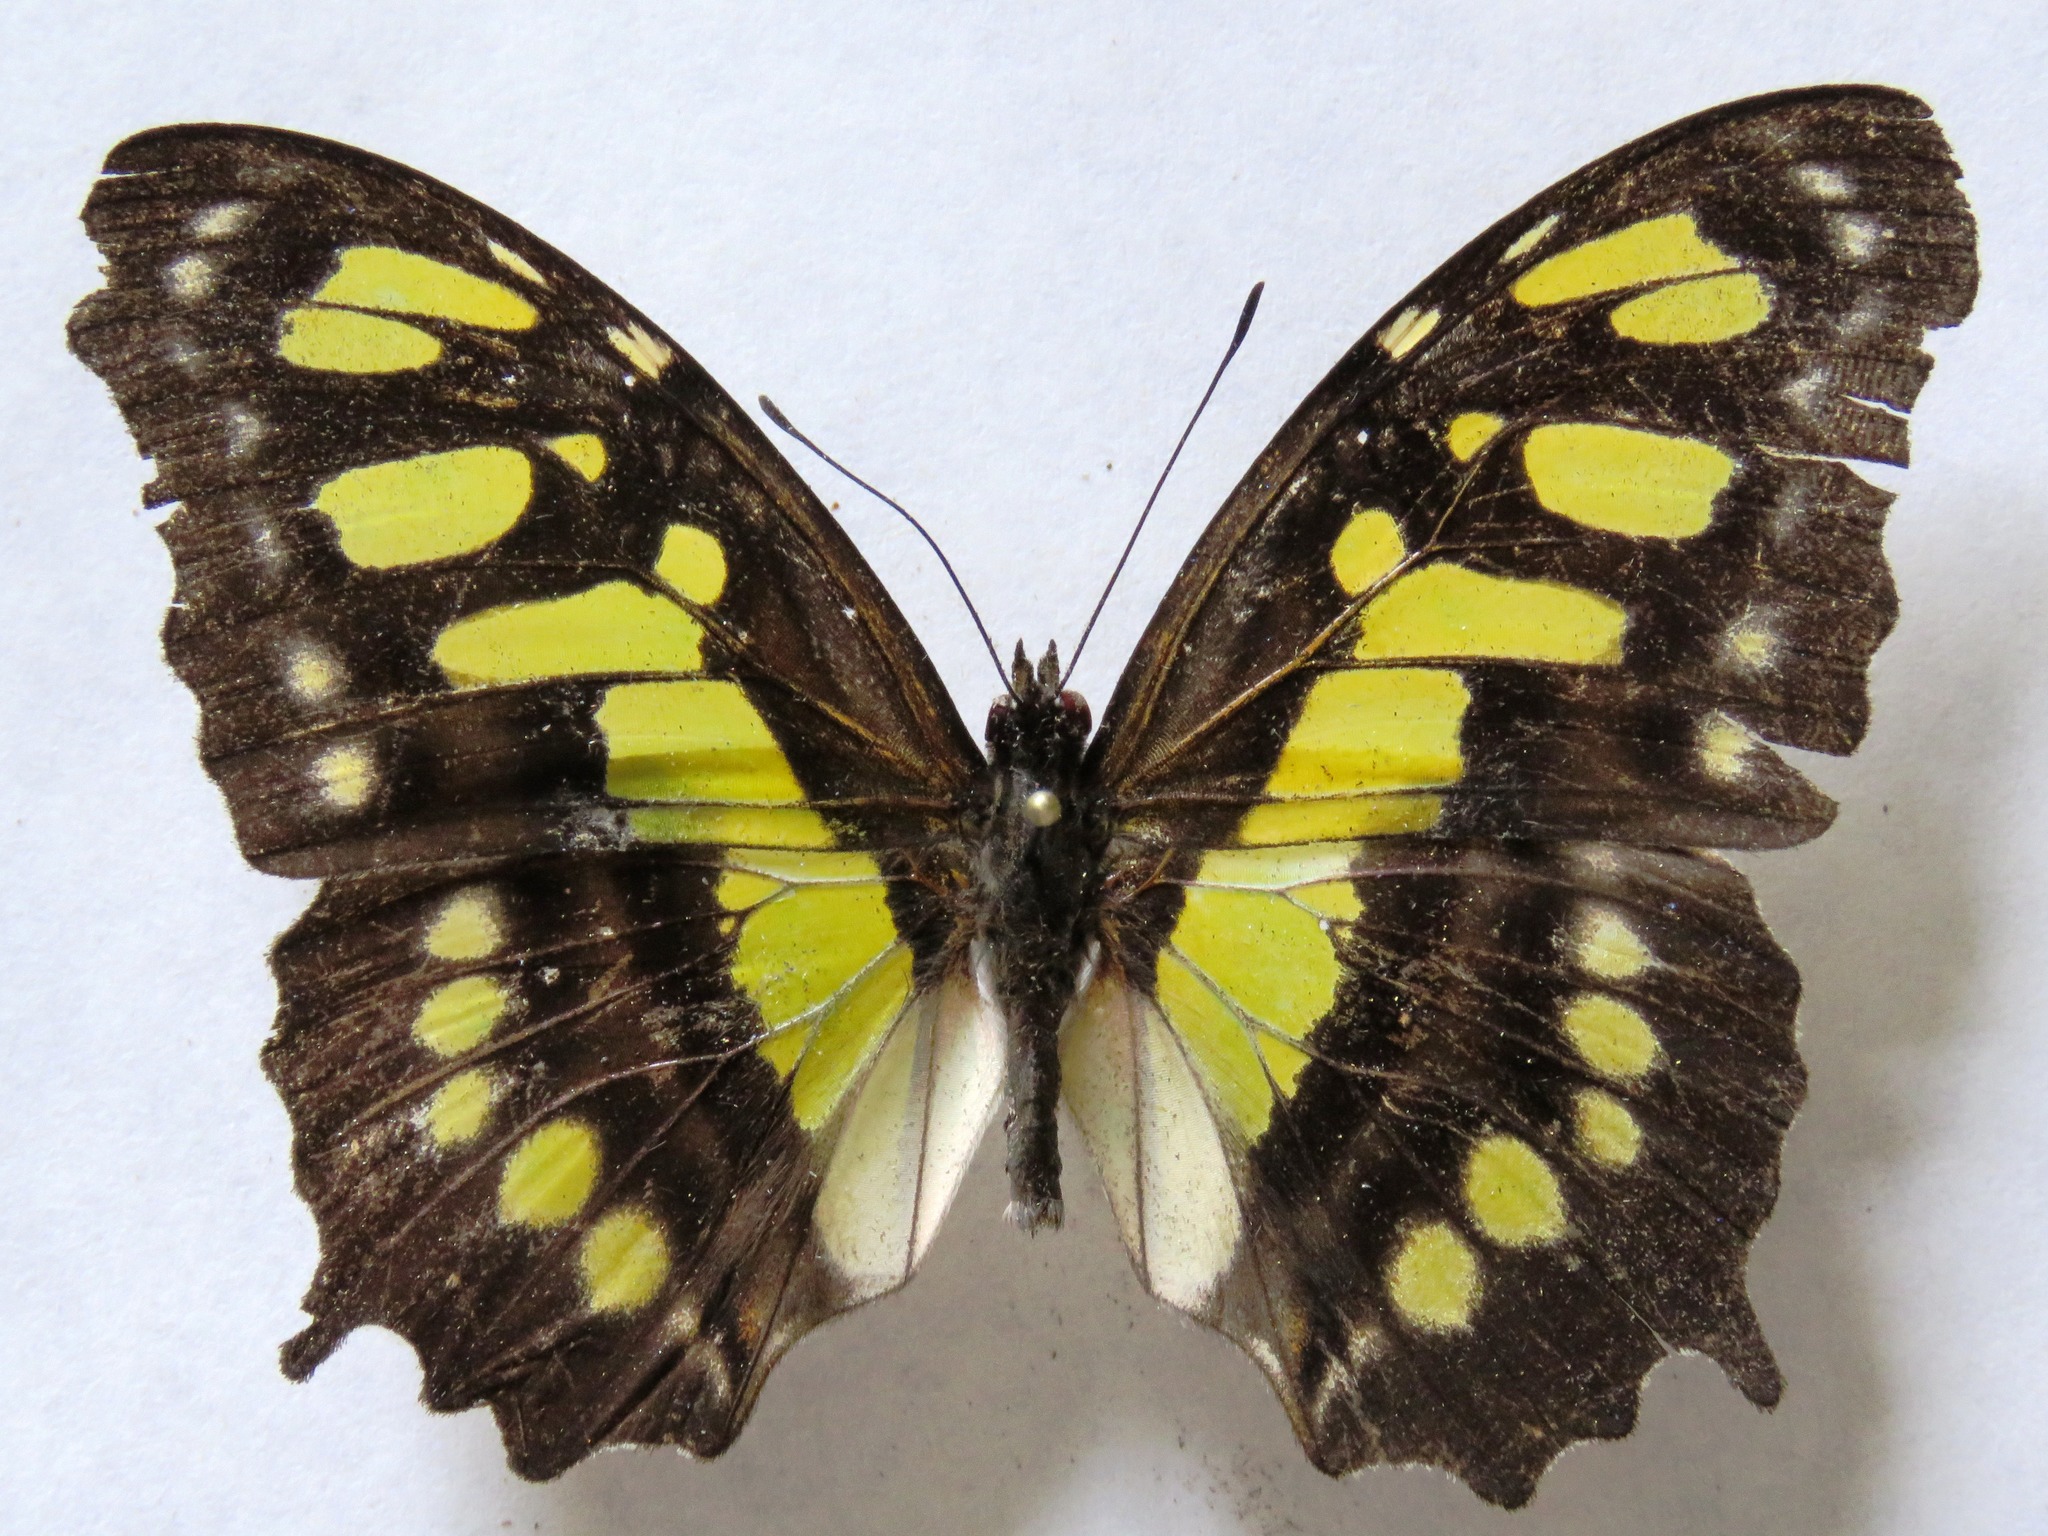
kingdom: Animalia
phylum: Arthropoda
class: Insecta
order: Lepidoptera
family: Nymphalidae
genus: Siproeta
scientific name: Siproeta stelenes
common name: Malachite
